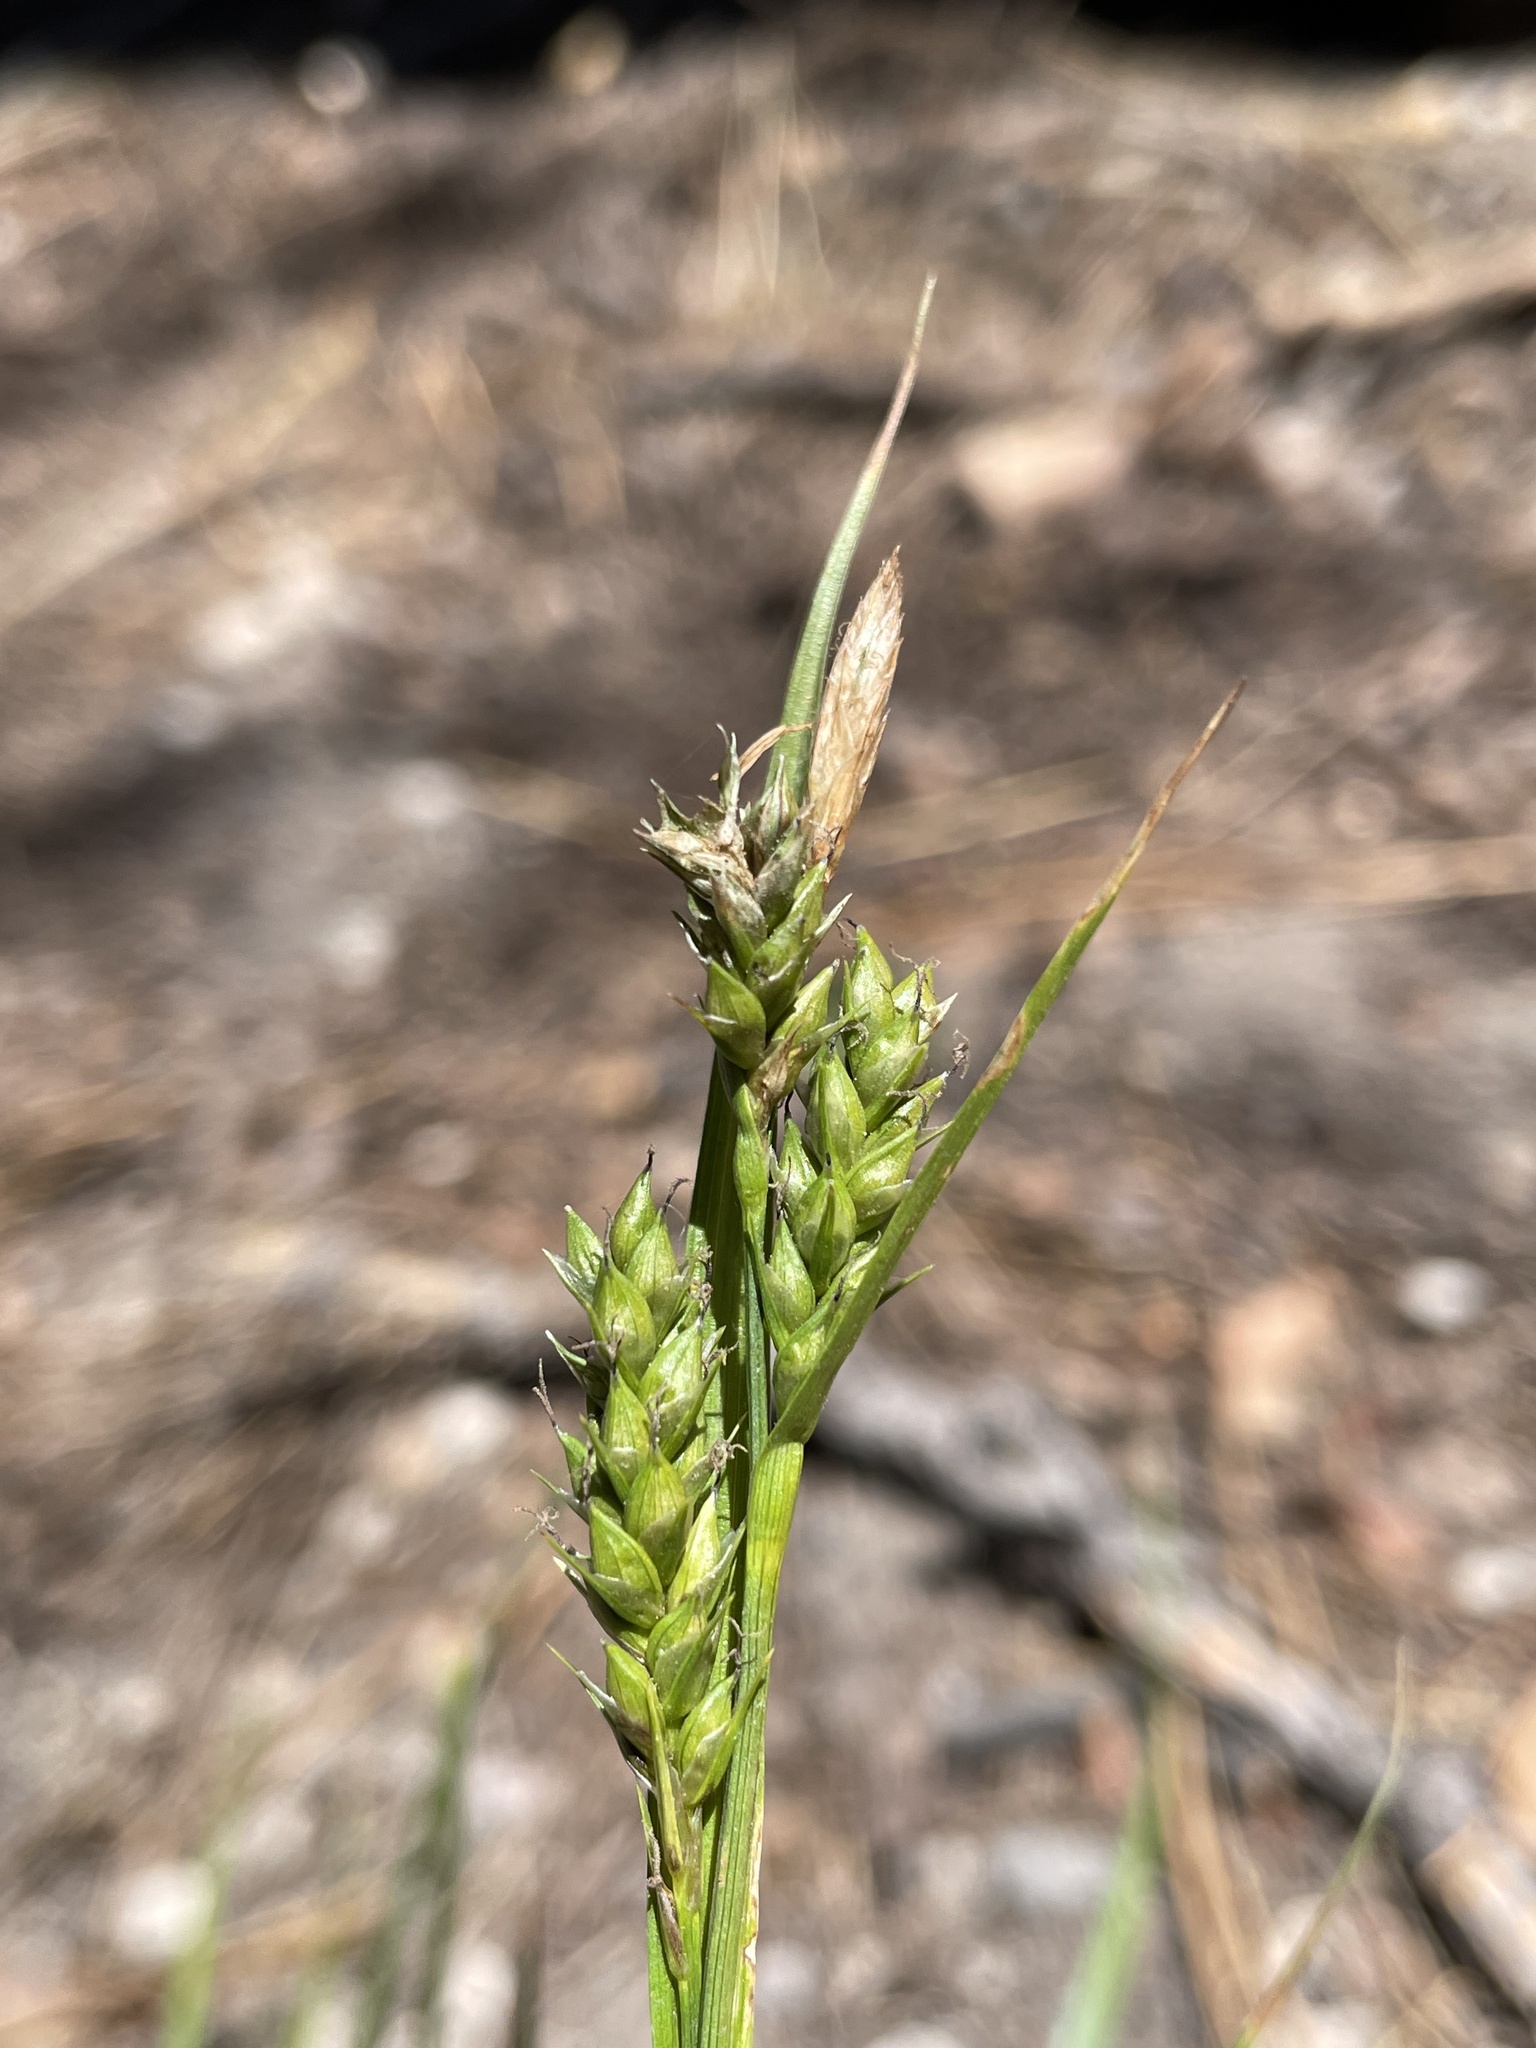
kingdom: Plantae
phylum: Tracheophyta
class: Liliopsida
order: Poales
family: Cyperaceae
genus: Carex
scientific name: Carex whitneyi
